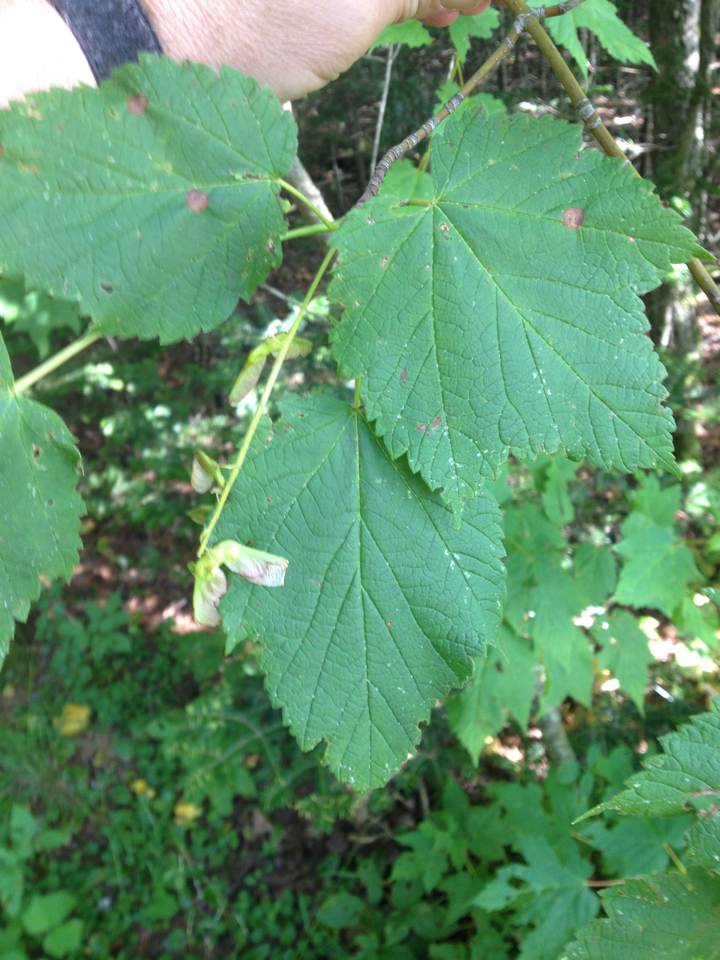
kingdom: Plantae
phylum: Tracheophyta
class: Magnoliopsida
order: Sapindales
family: Sapindaceae
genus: Acer
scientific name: Acer spicatum
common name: Mountain maple
